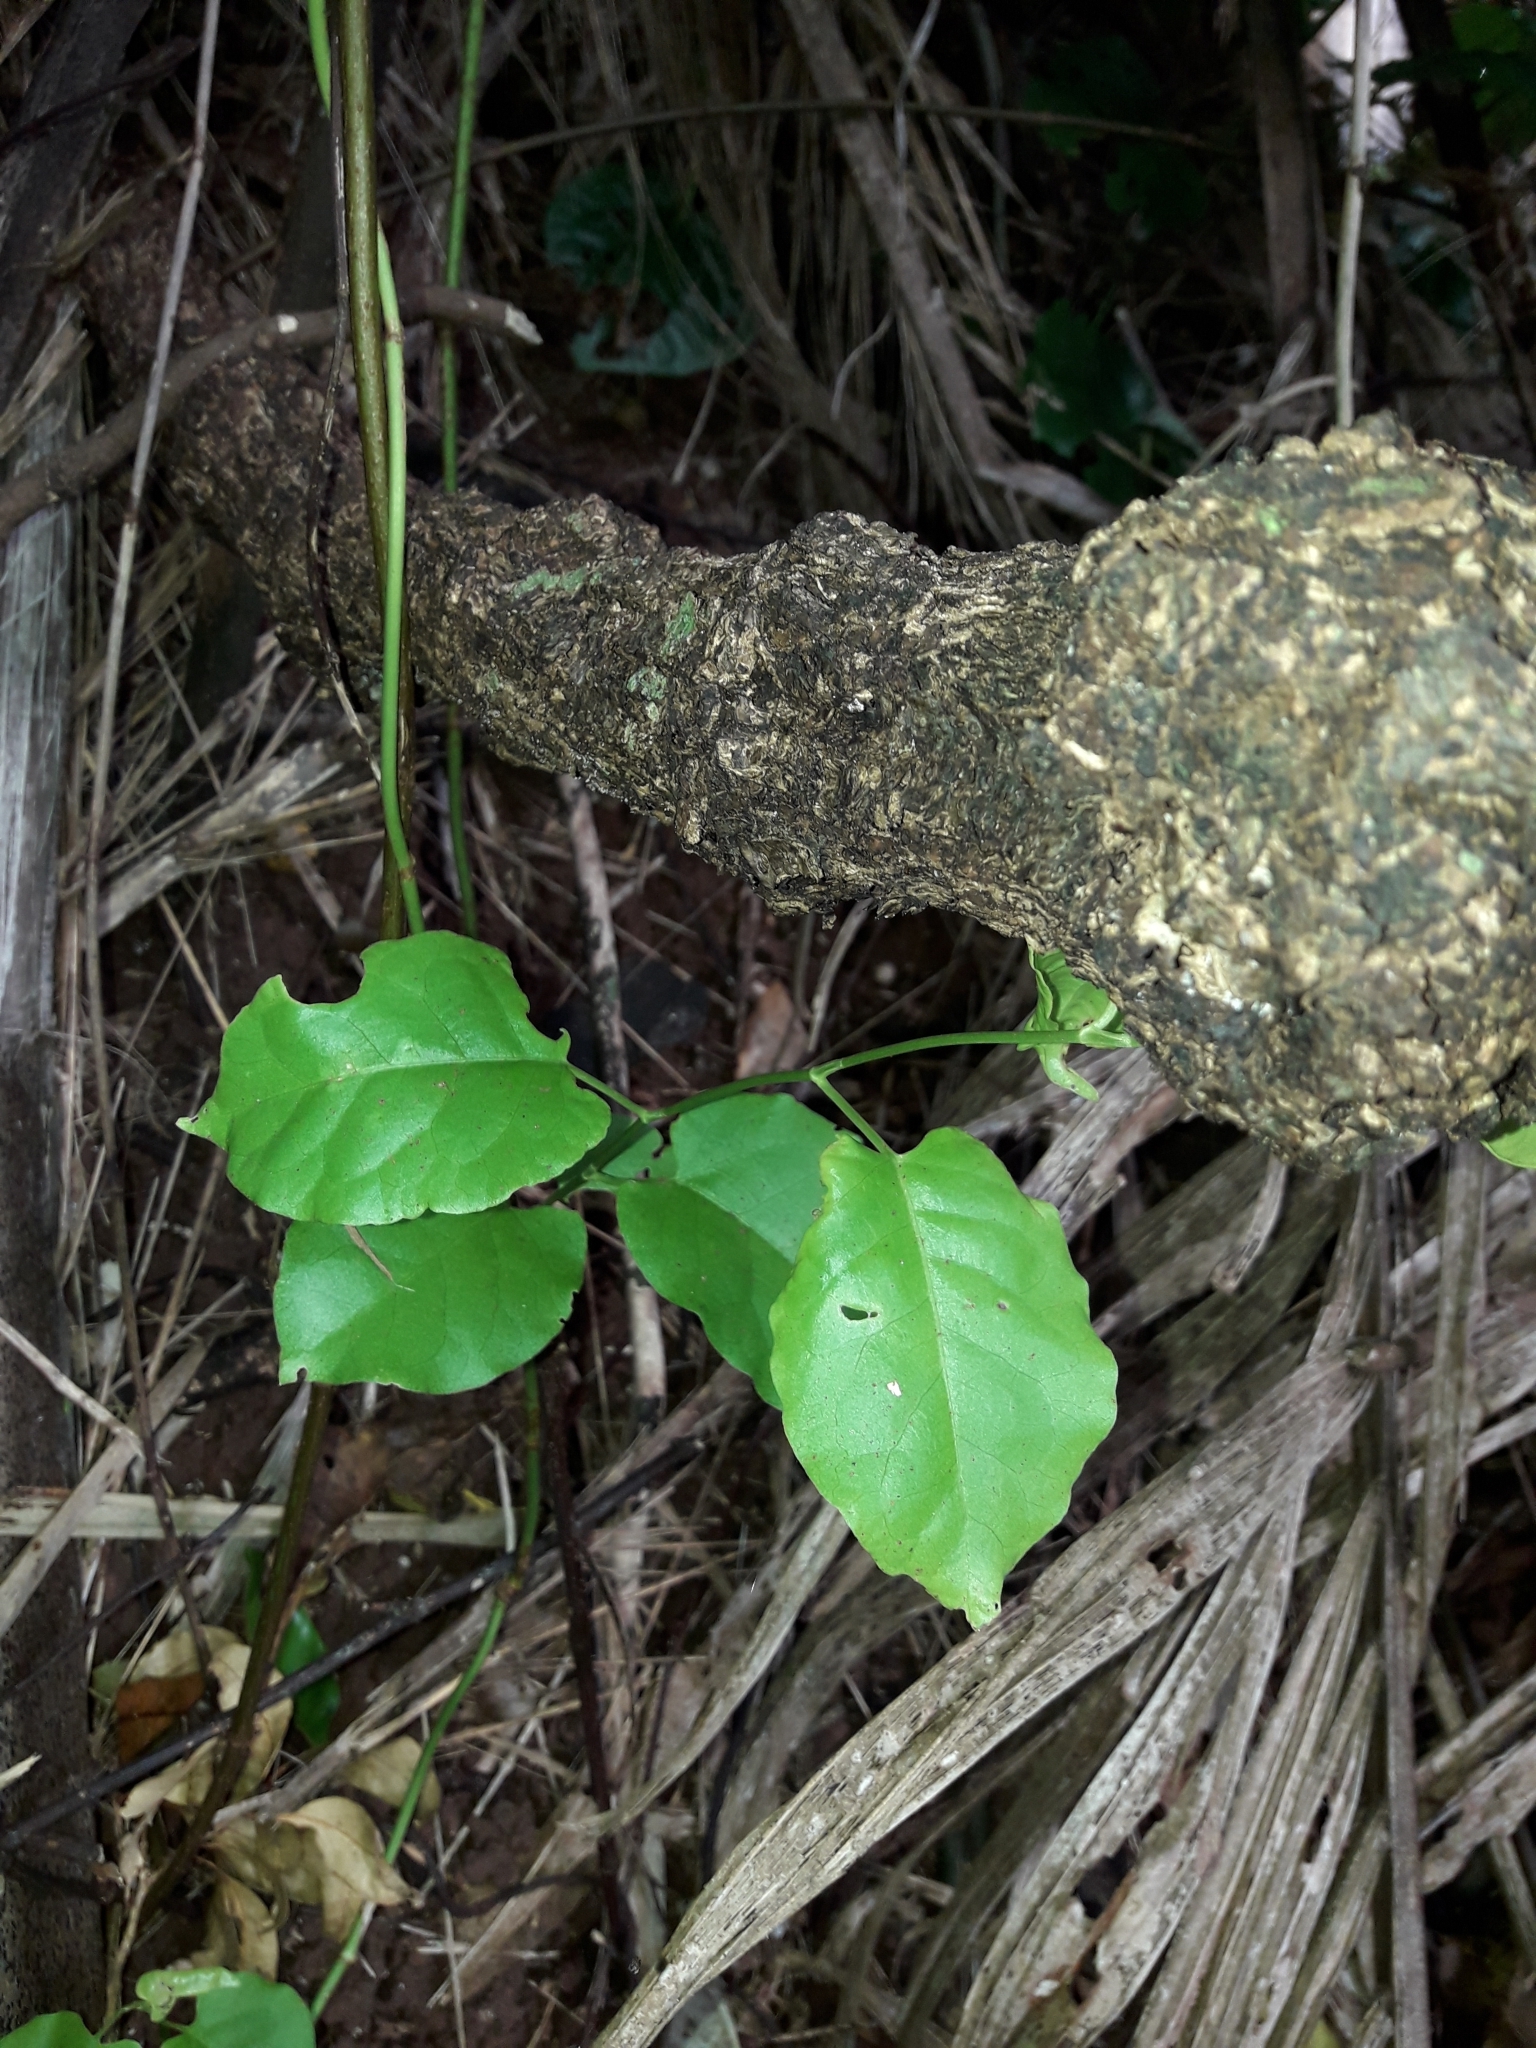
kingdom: Plantae
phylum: Tracheophyta
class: Magnoliopsida
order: Caryophyllales
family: Polygonaceae
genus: Muehlenbeckia
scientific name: Muehlenbeckia australis
